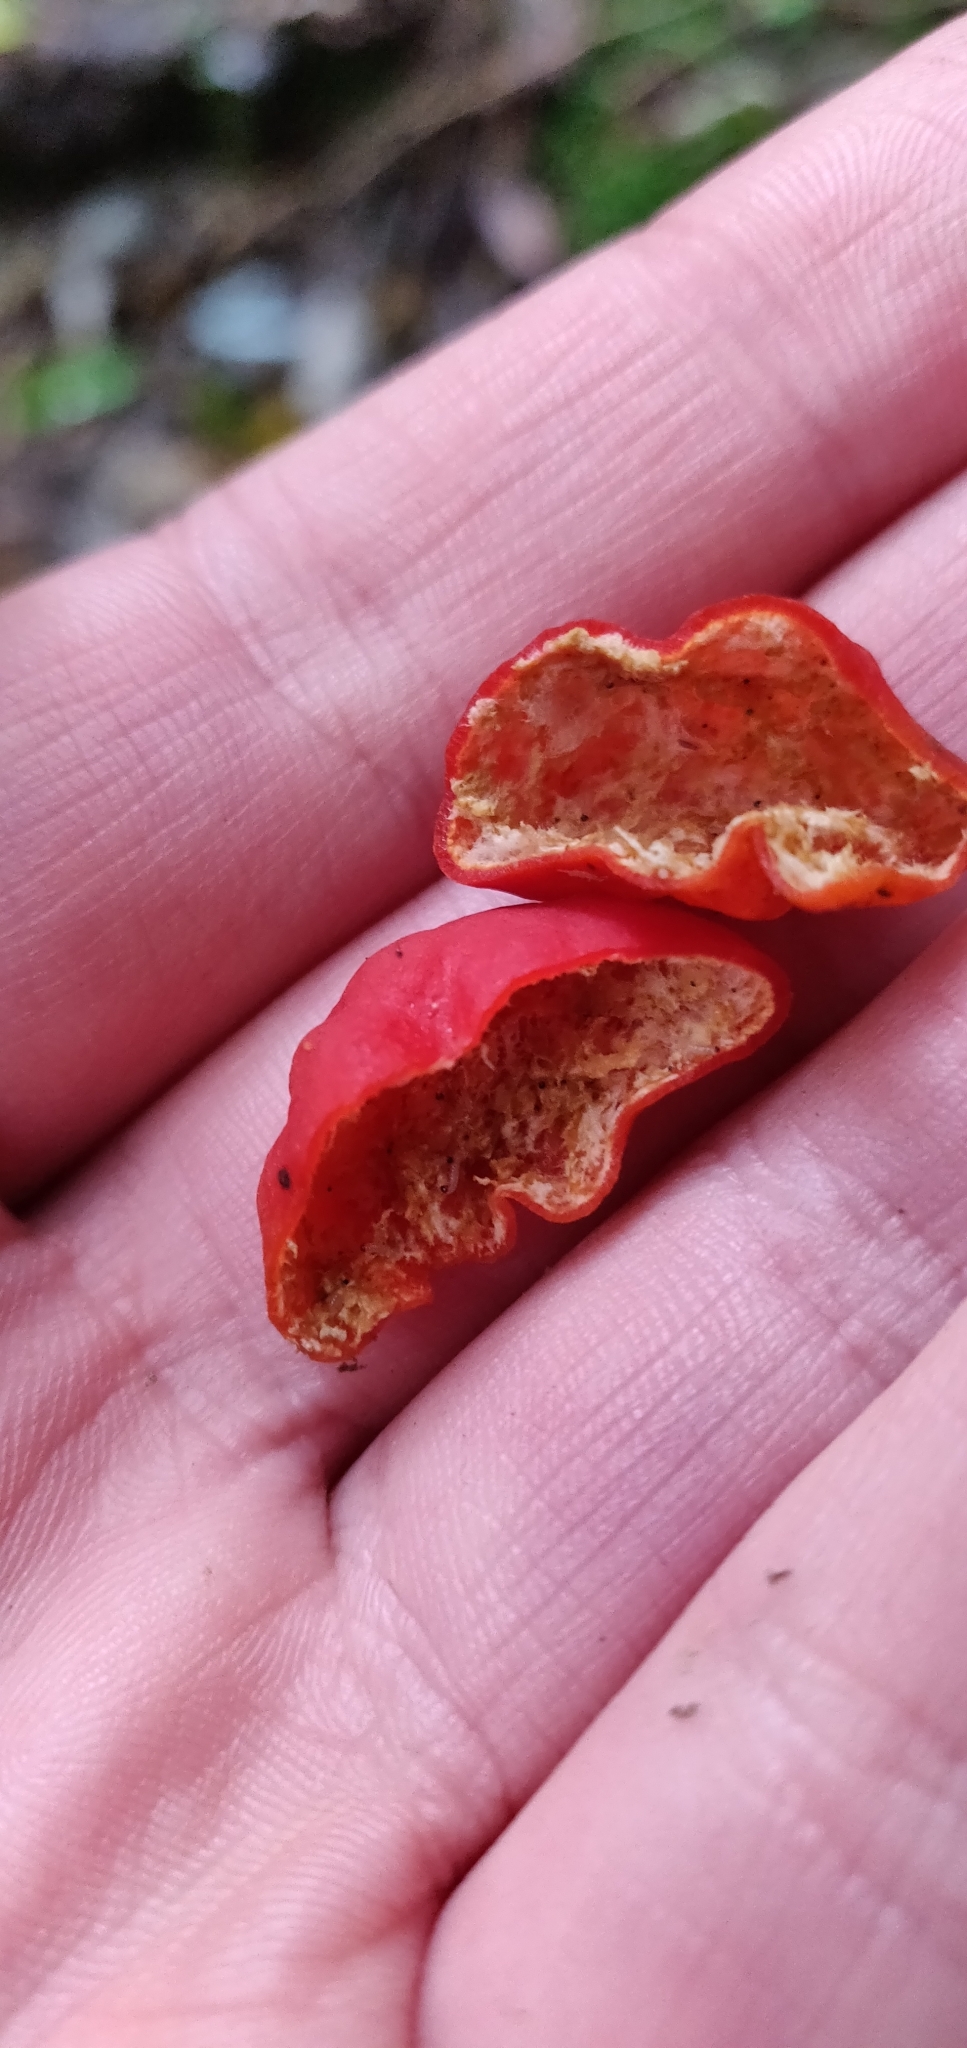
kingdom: Fungi
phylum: Ascomycota
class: Pezizomycetes
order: Pezizales
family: Pyronemataceae
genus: Paurocotylis
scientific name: Paurocotylis pila
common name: Scarlet berry truffle
